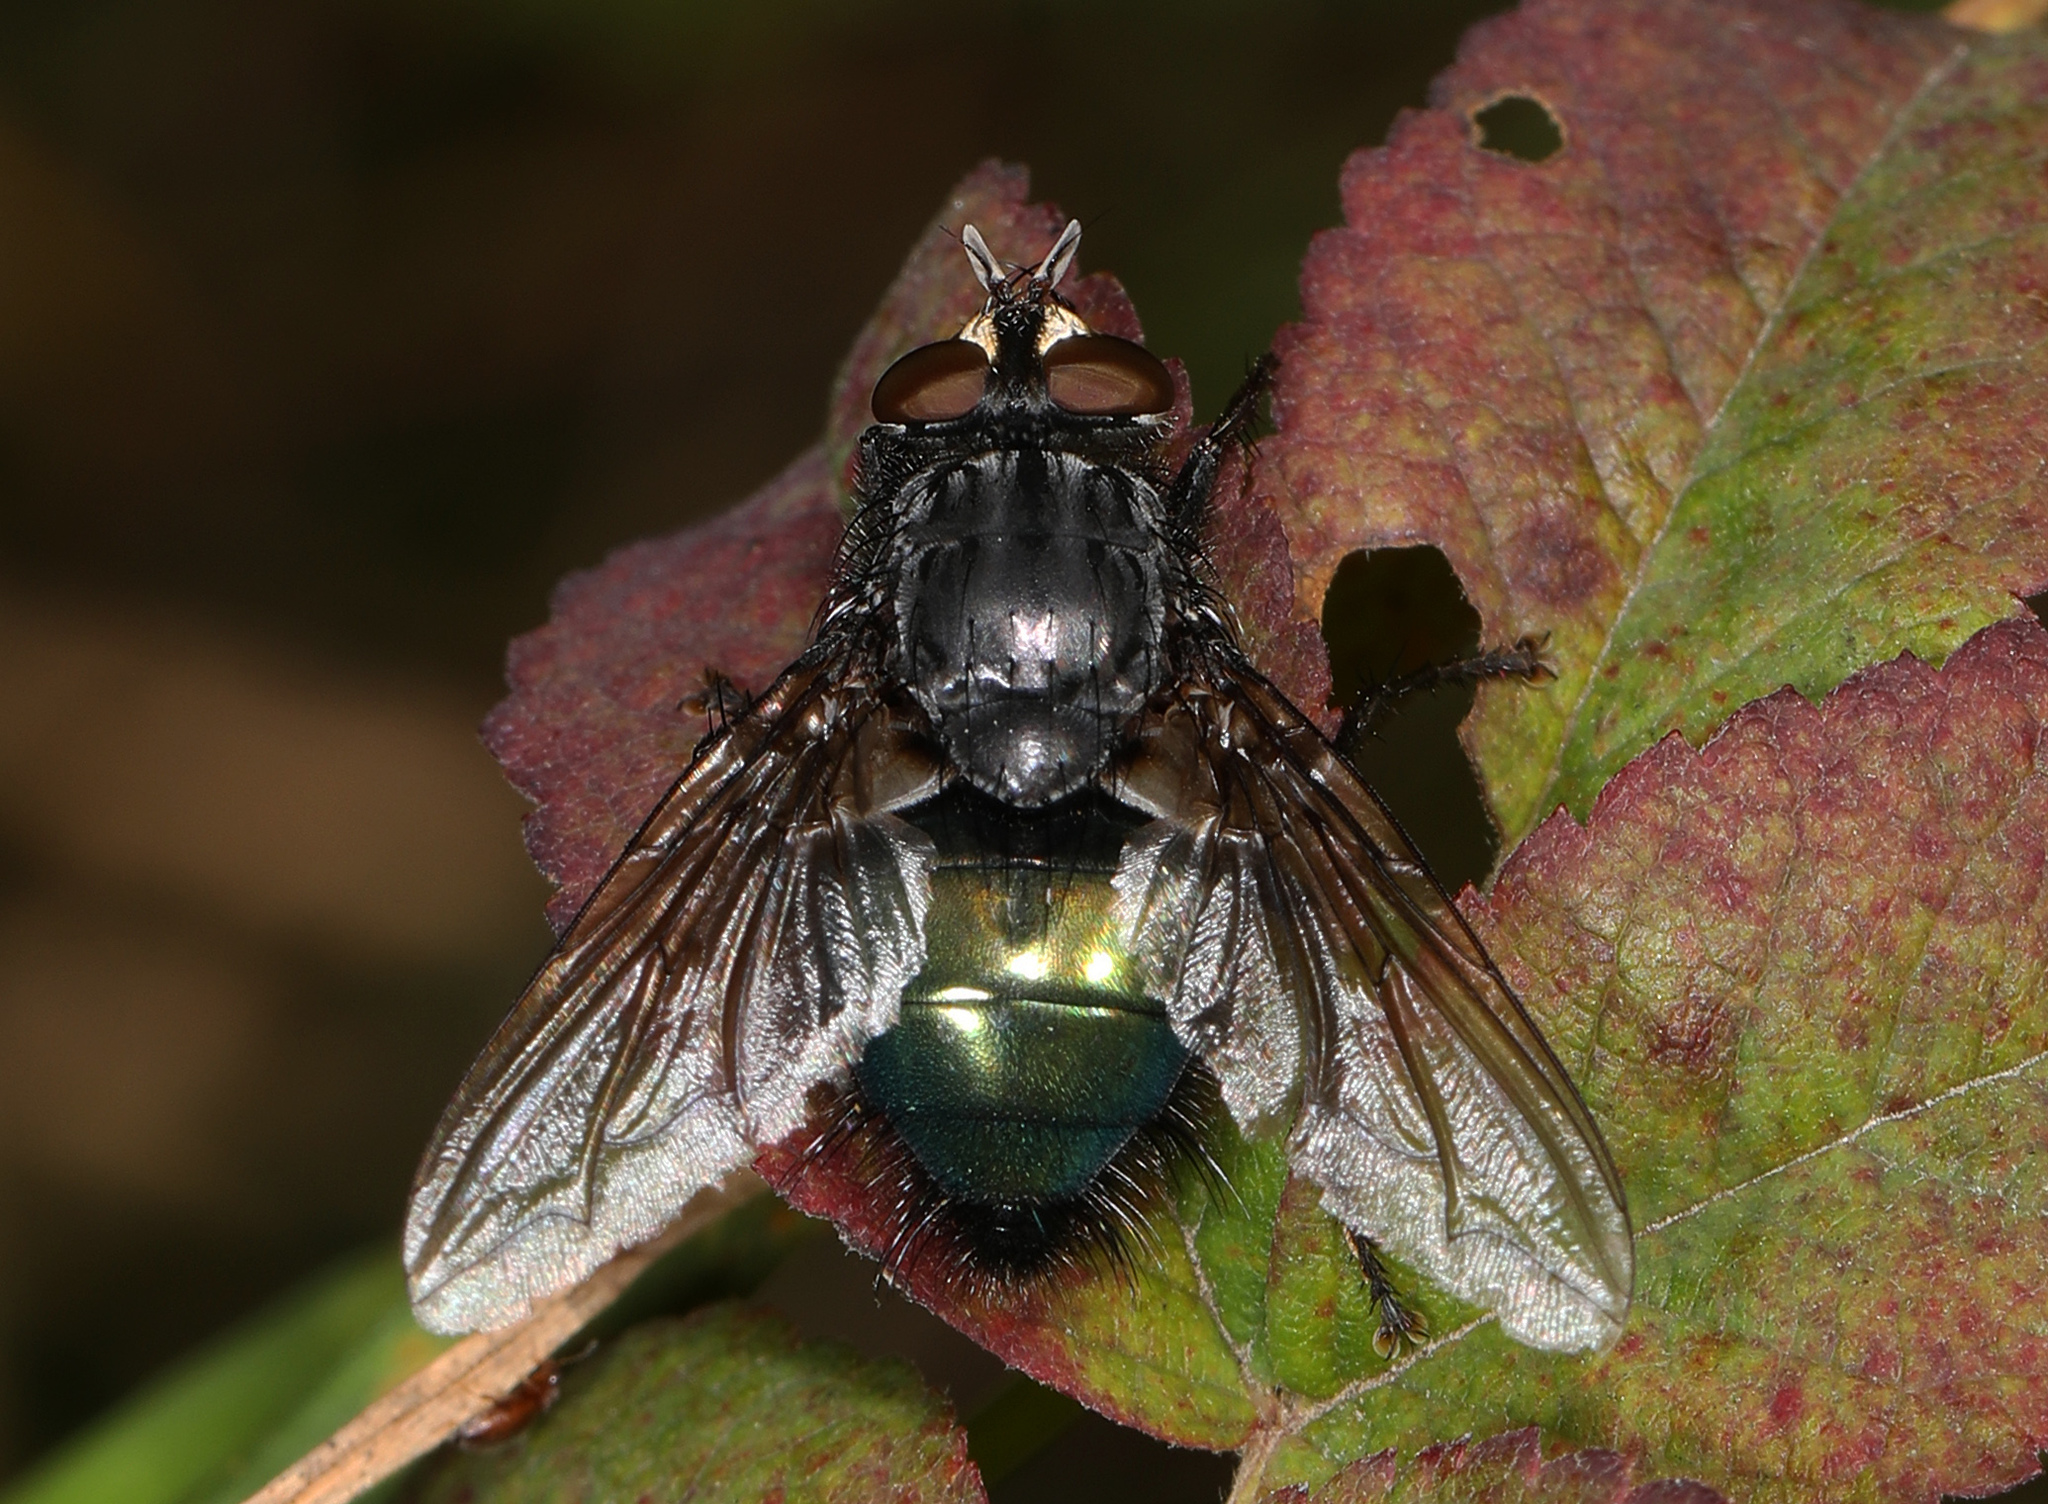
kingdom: Animalia
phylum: Arthropoda
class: Insecta
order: Diptera
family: Calliphoridae
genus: Cynomya
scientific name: Cynomya cadaverina
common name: Shiny blue bottle fly
